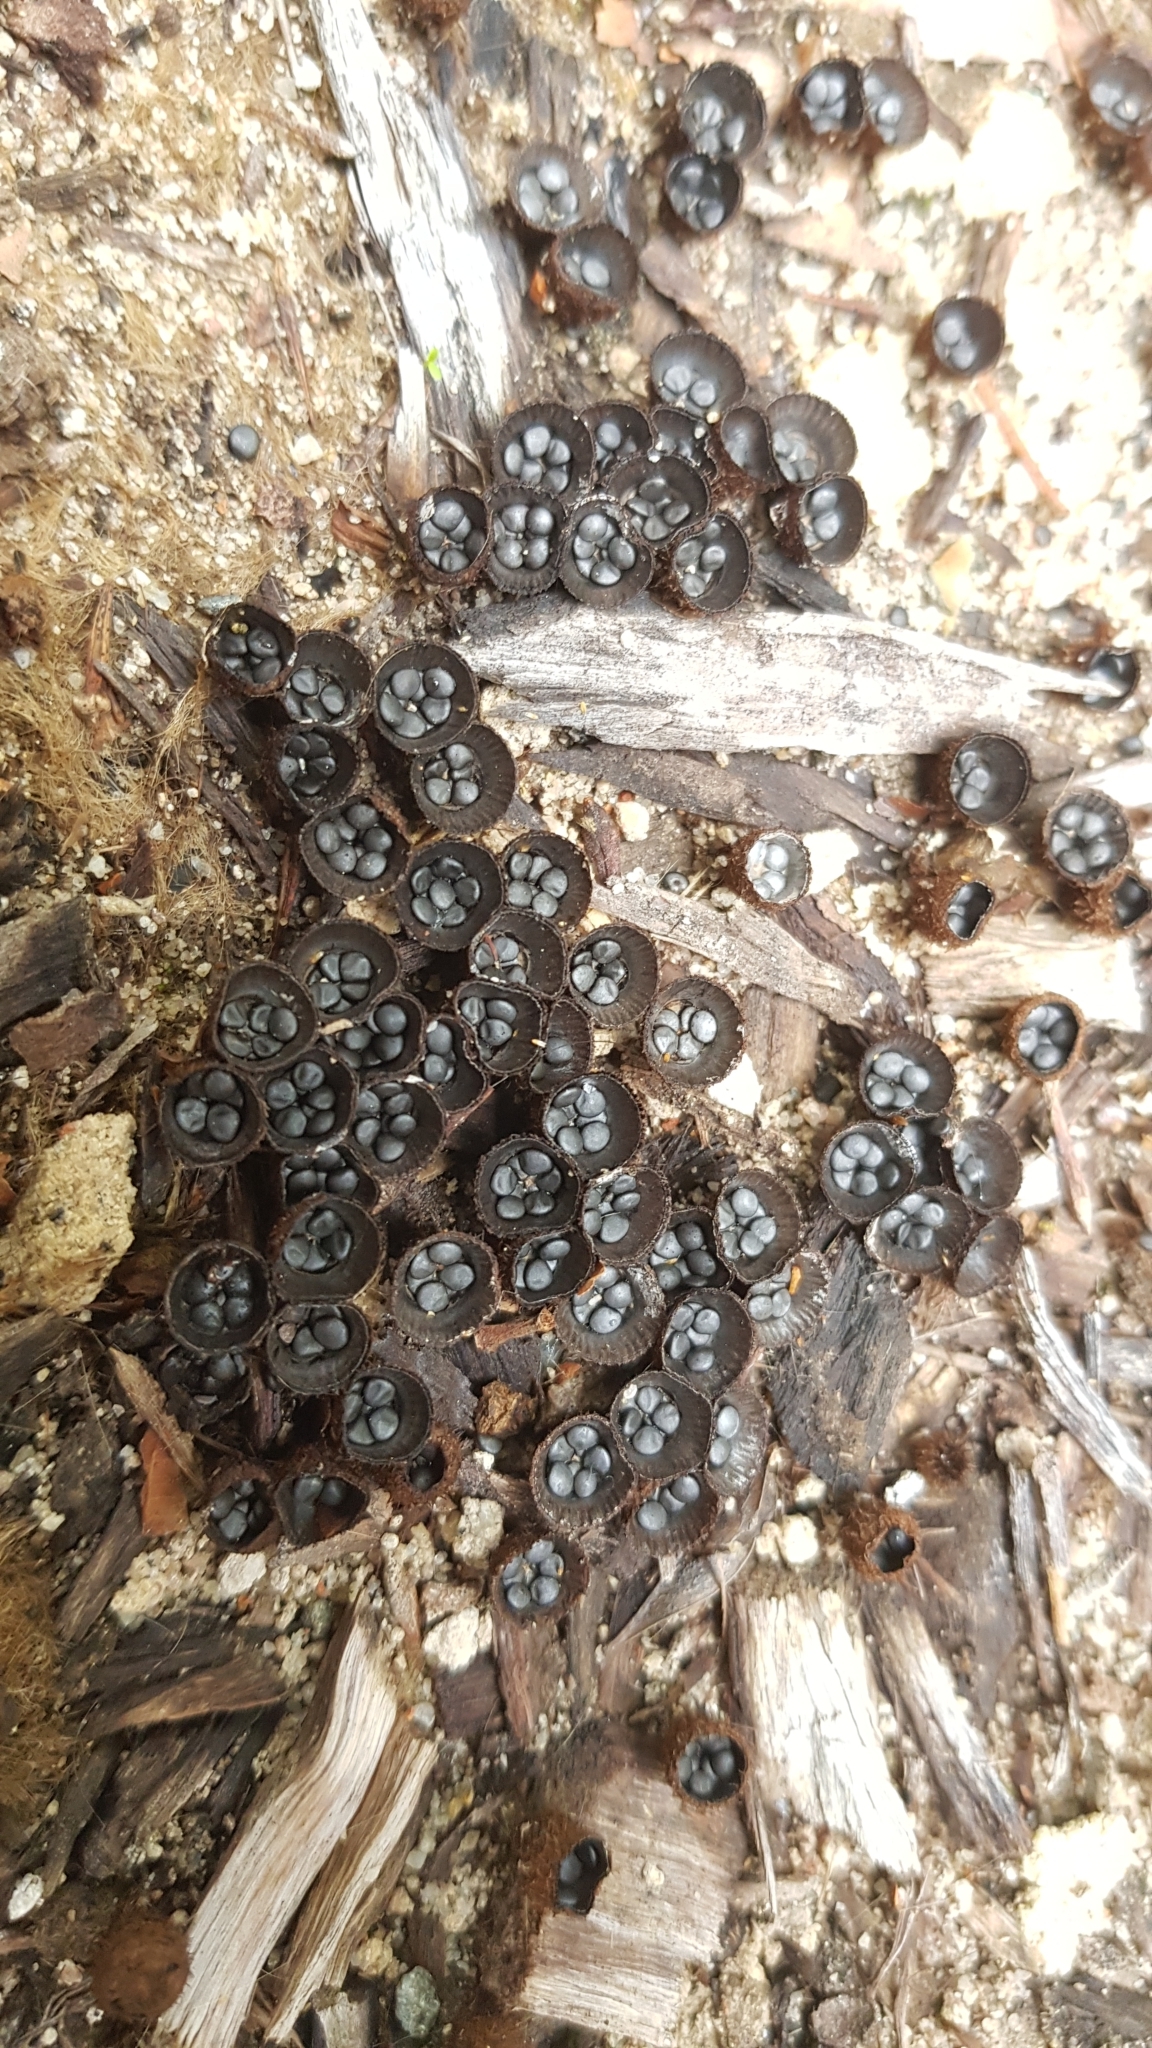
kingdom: Fungi
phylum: Basidiomycota
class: Agaricomycetes
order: Agaricales
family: Agaricaceae
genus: Cyathus
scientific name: Cyathus striatus
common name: Fluted bird's nest
